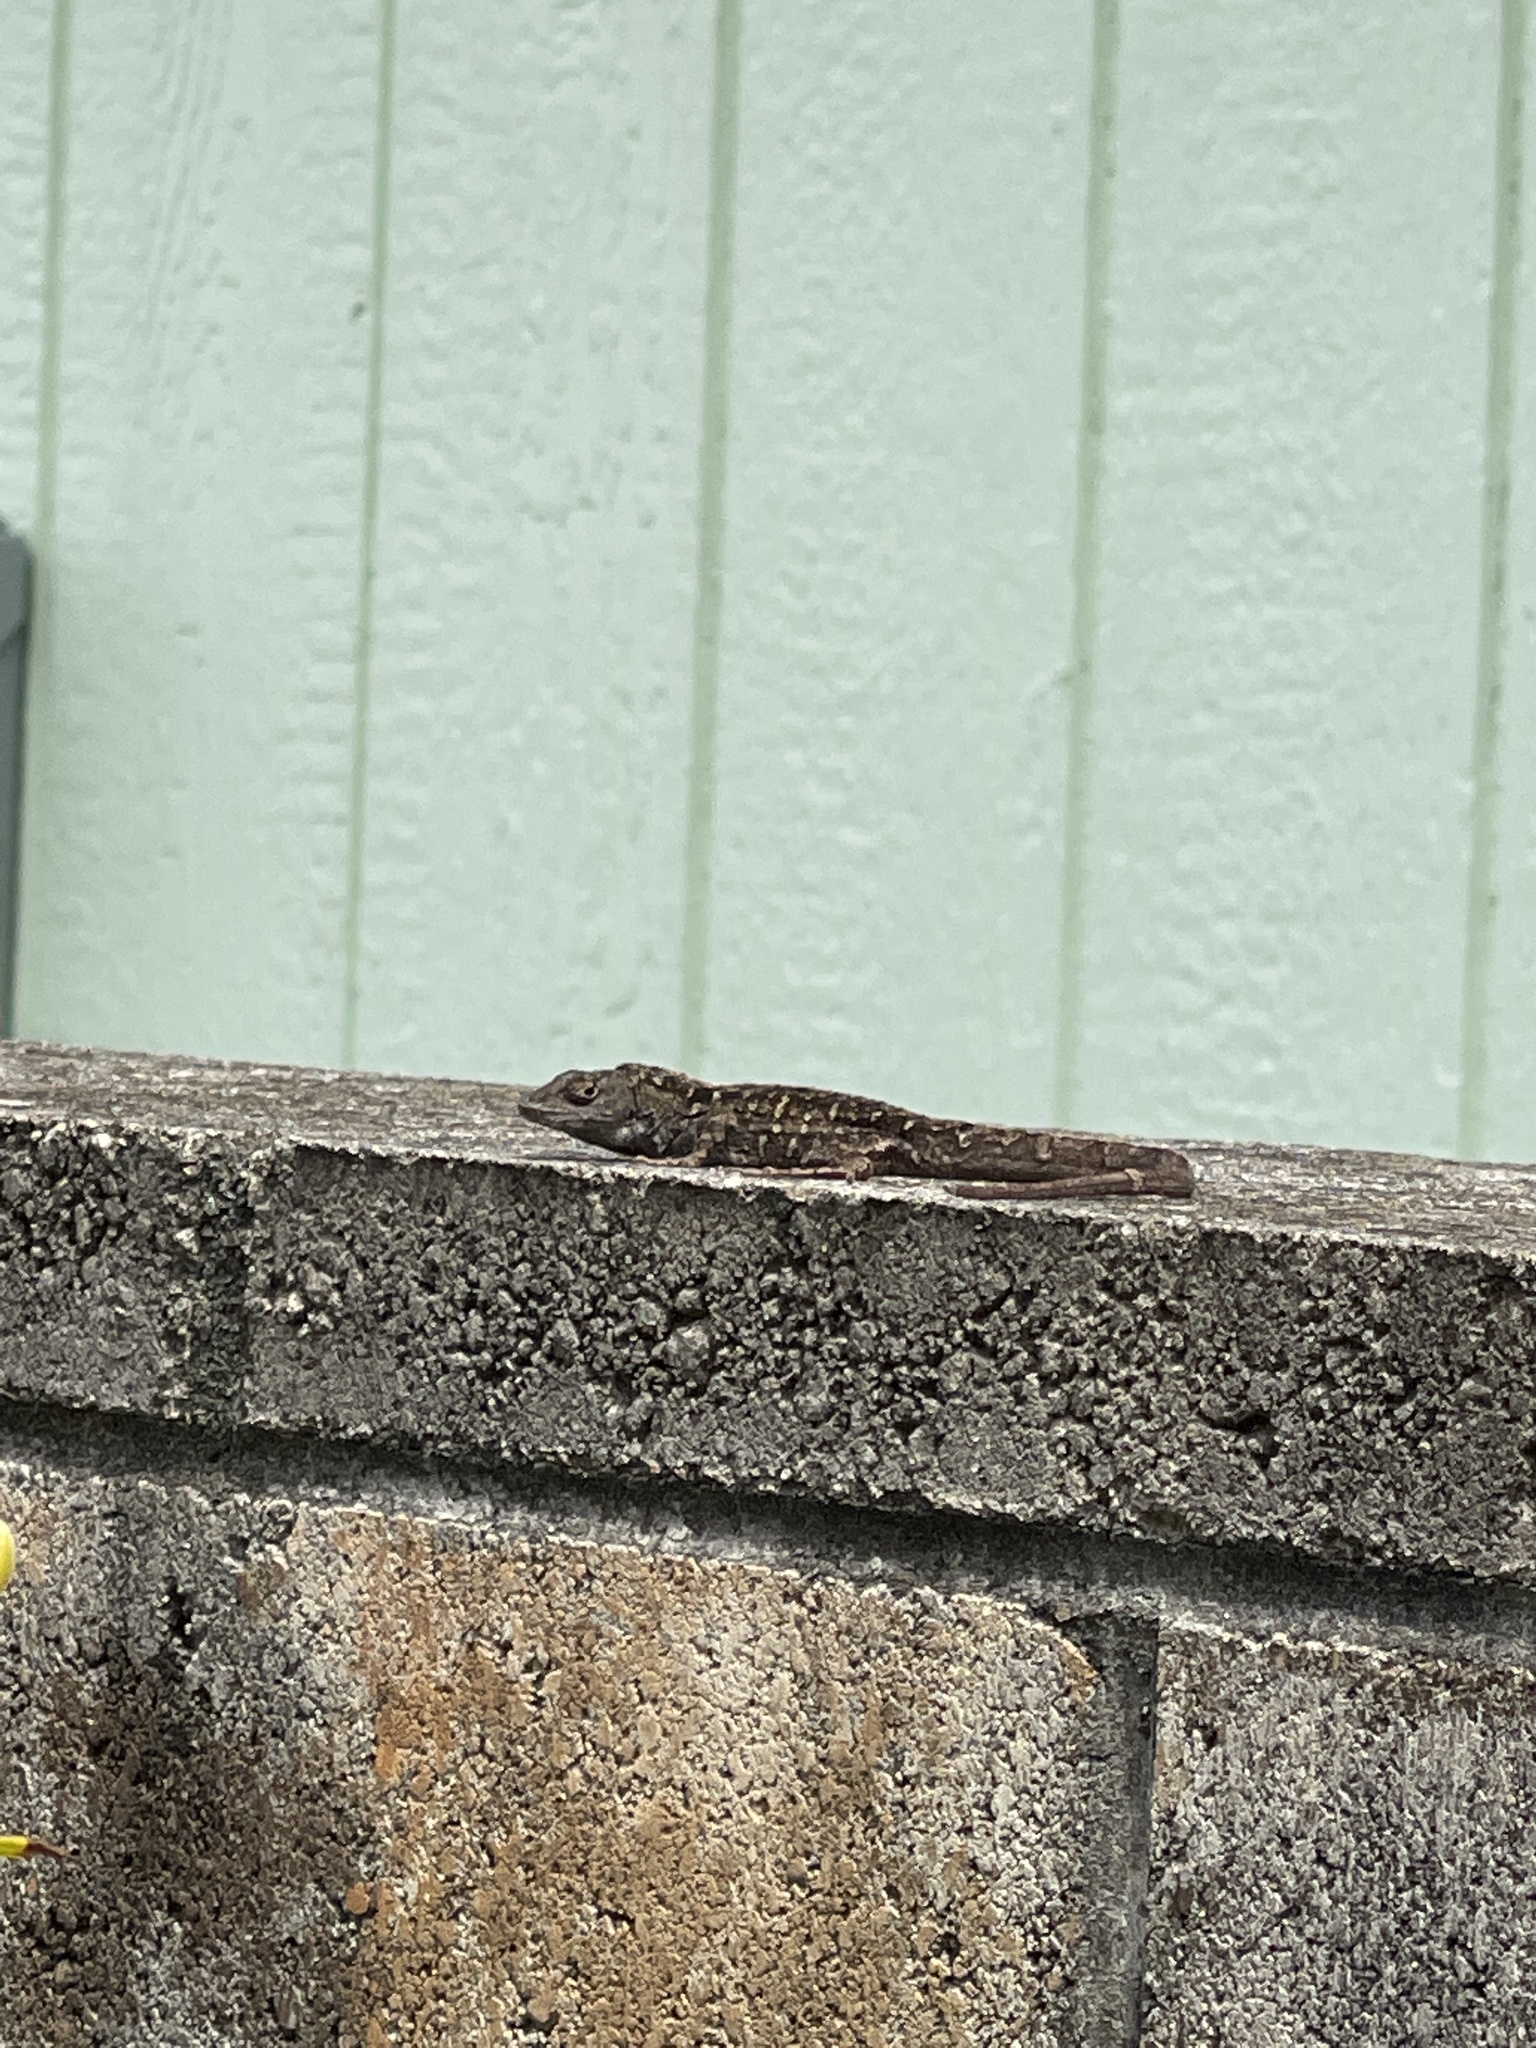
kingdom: Animalia
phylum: Chordata
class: Squamata
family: Dactyloidae
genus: Anolis
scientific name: Anolis sagrei
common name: Brown anole
